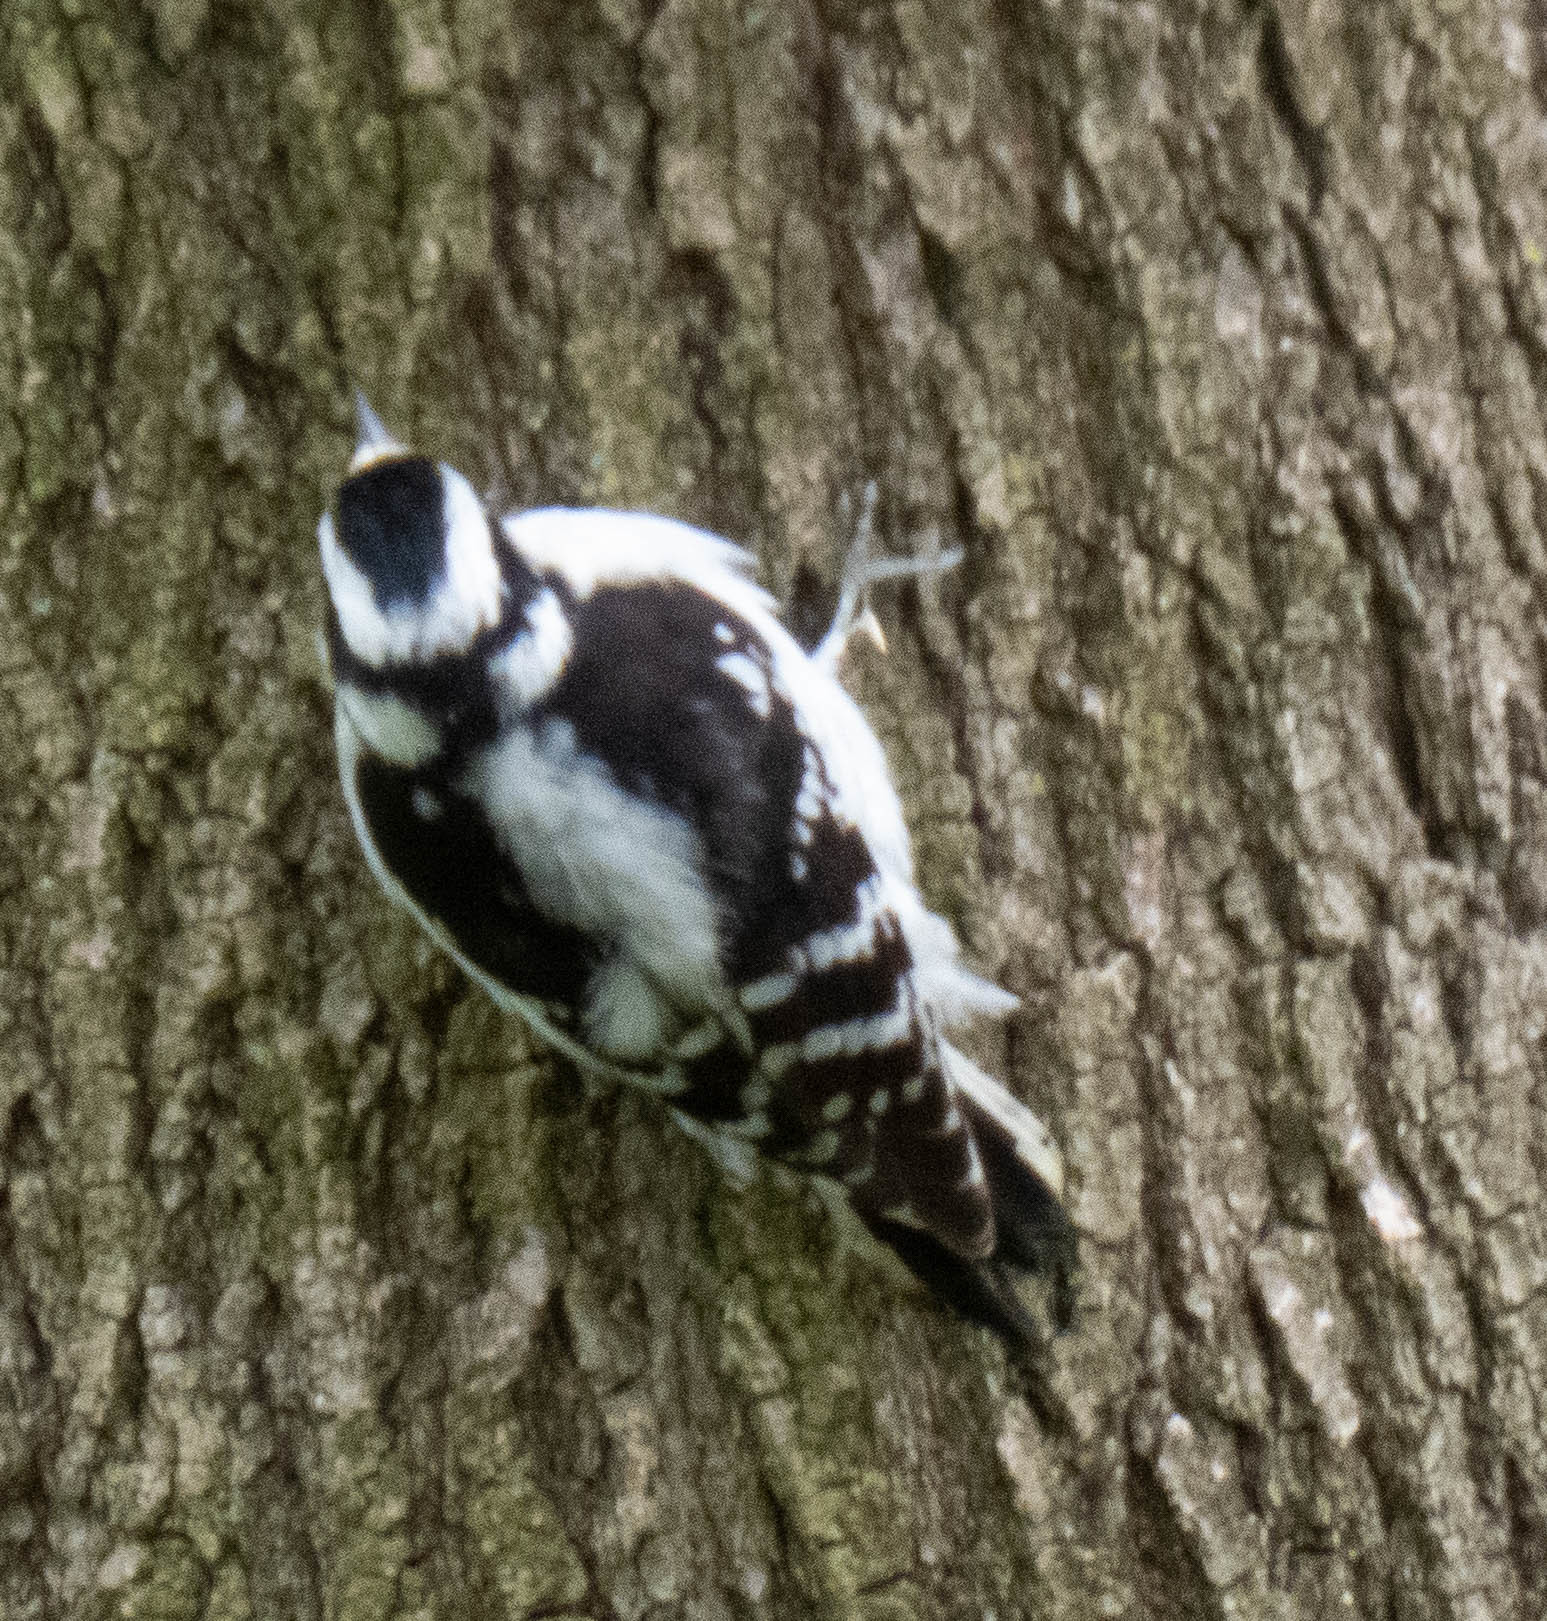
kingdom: Animalia
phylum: Chordata
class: Aves
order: Piciformes
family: Picidae
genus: Dryobates
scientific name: Dryobates pubescens
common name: Downy woodpecker
